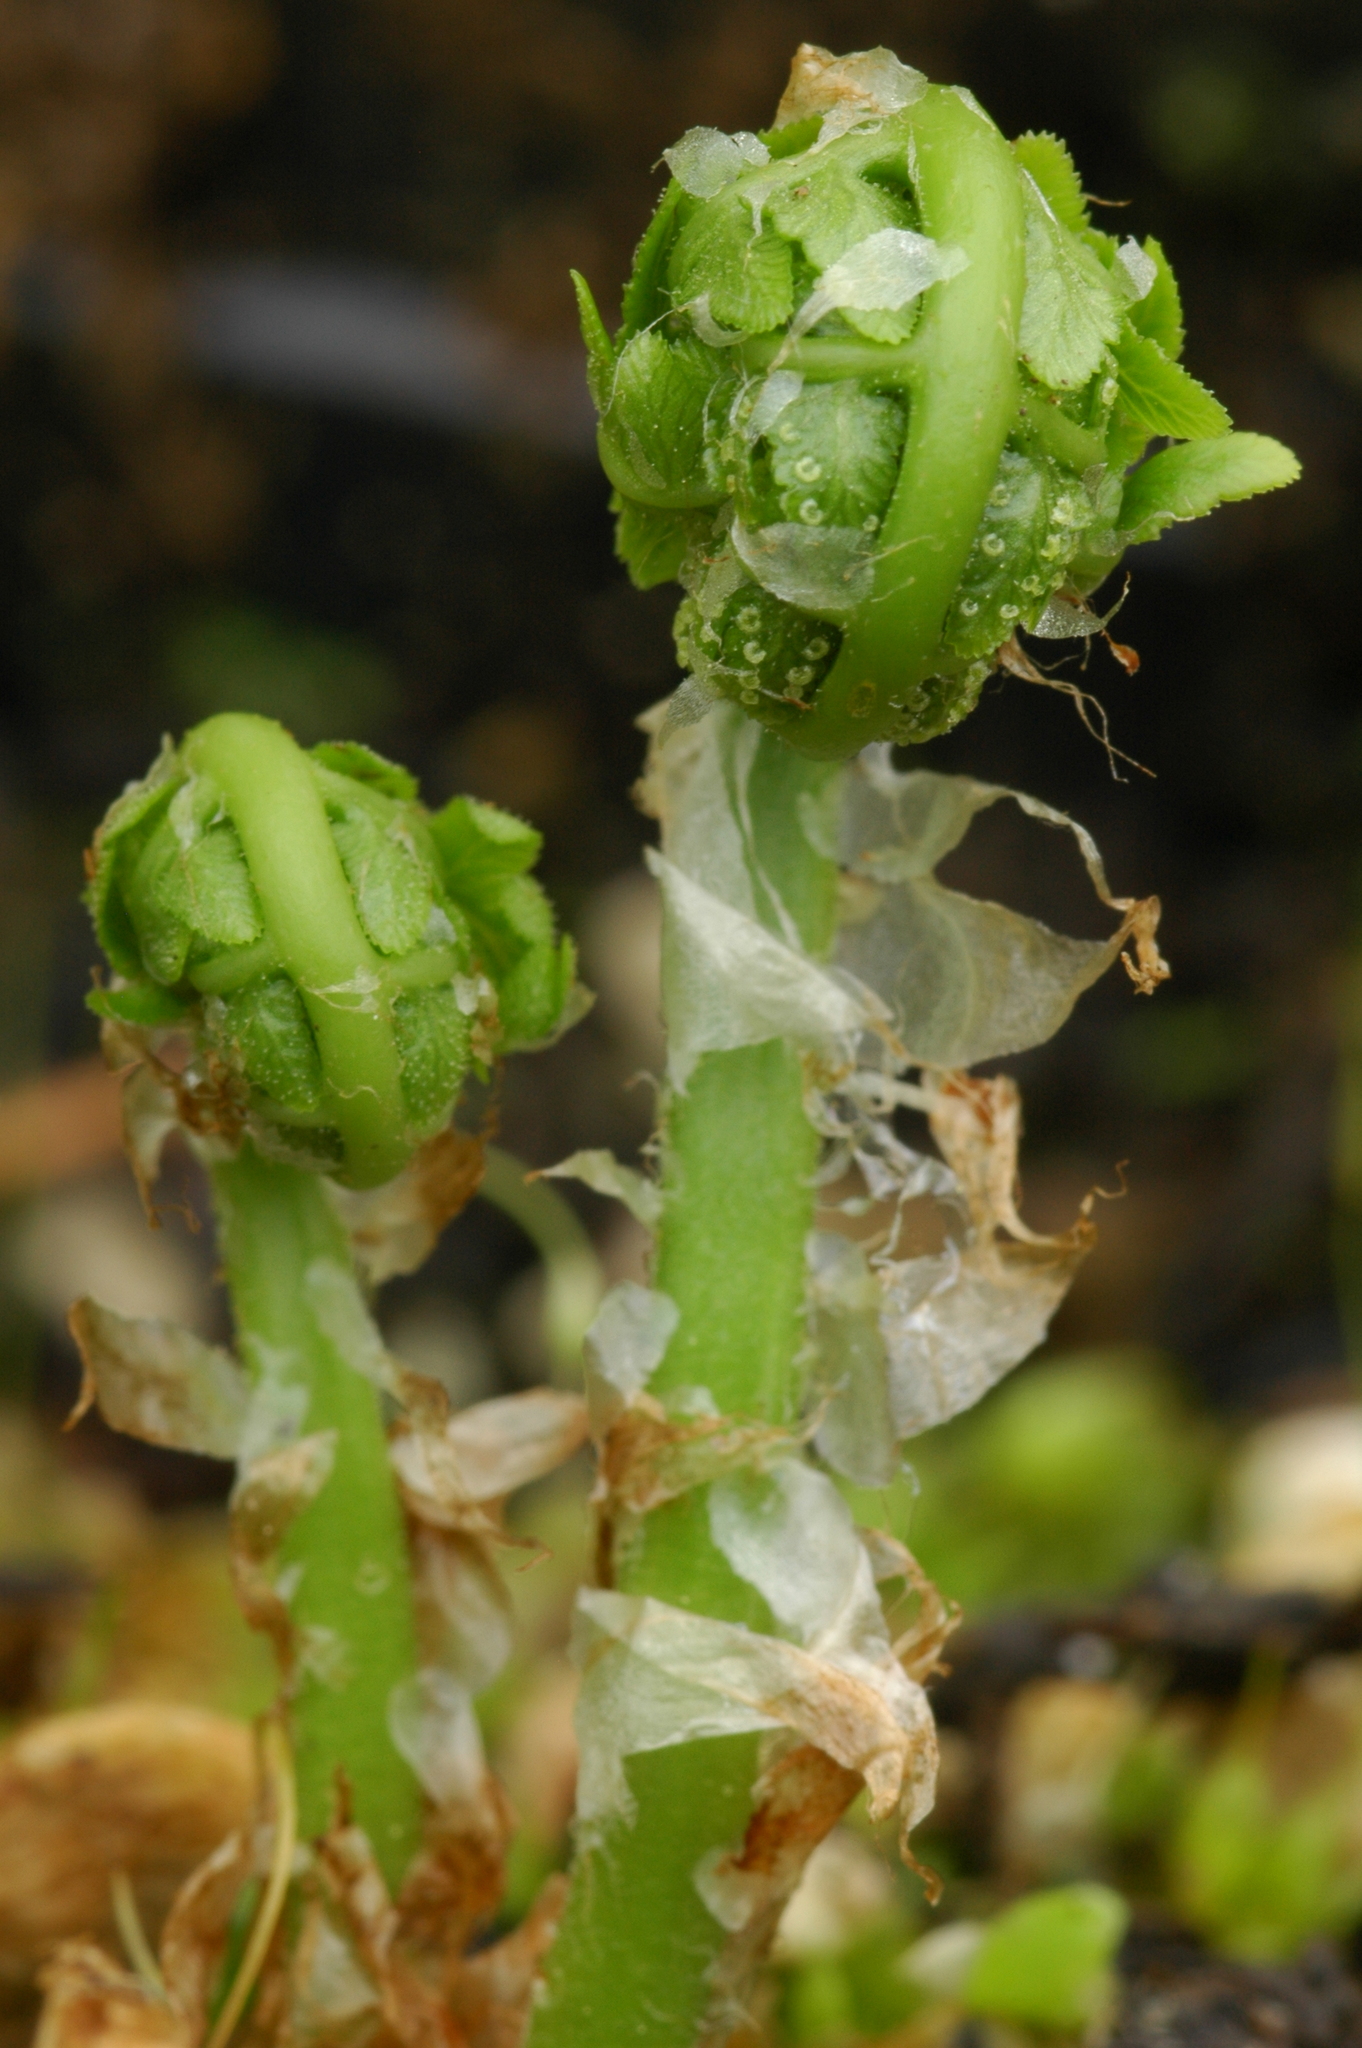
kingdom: Plantae
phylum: Tracheophyta
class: Polypodiopsida
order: Polypodiales
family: Dryopteridaceae
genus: Dryopteris
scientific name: Dryopteris arguta
